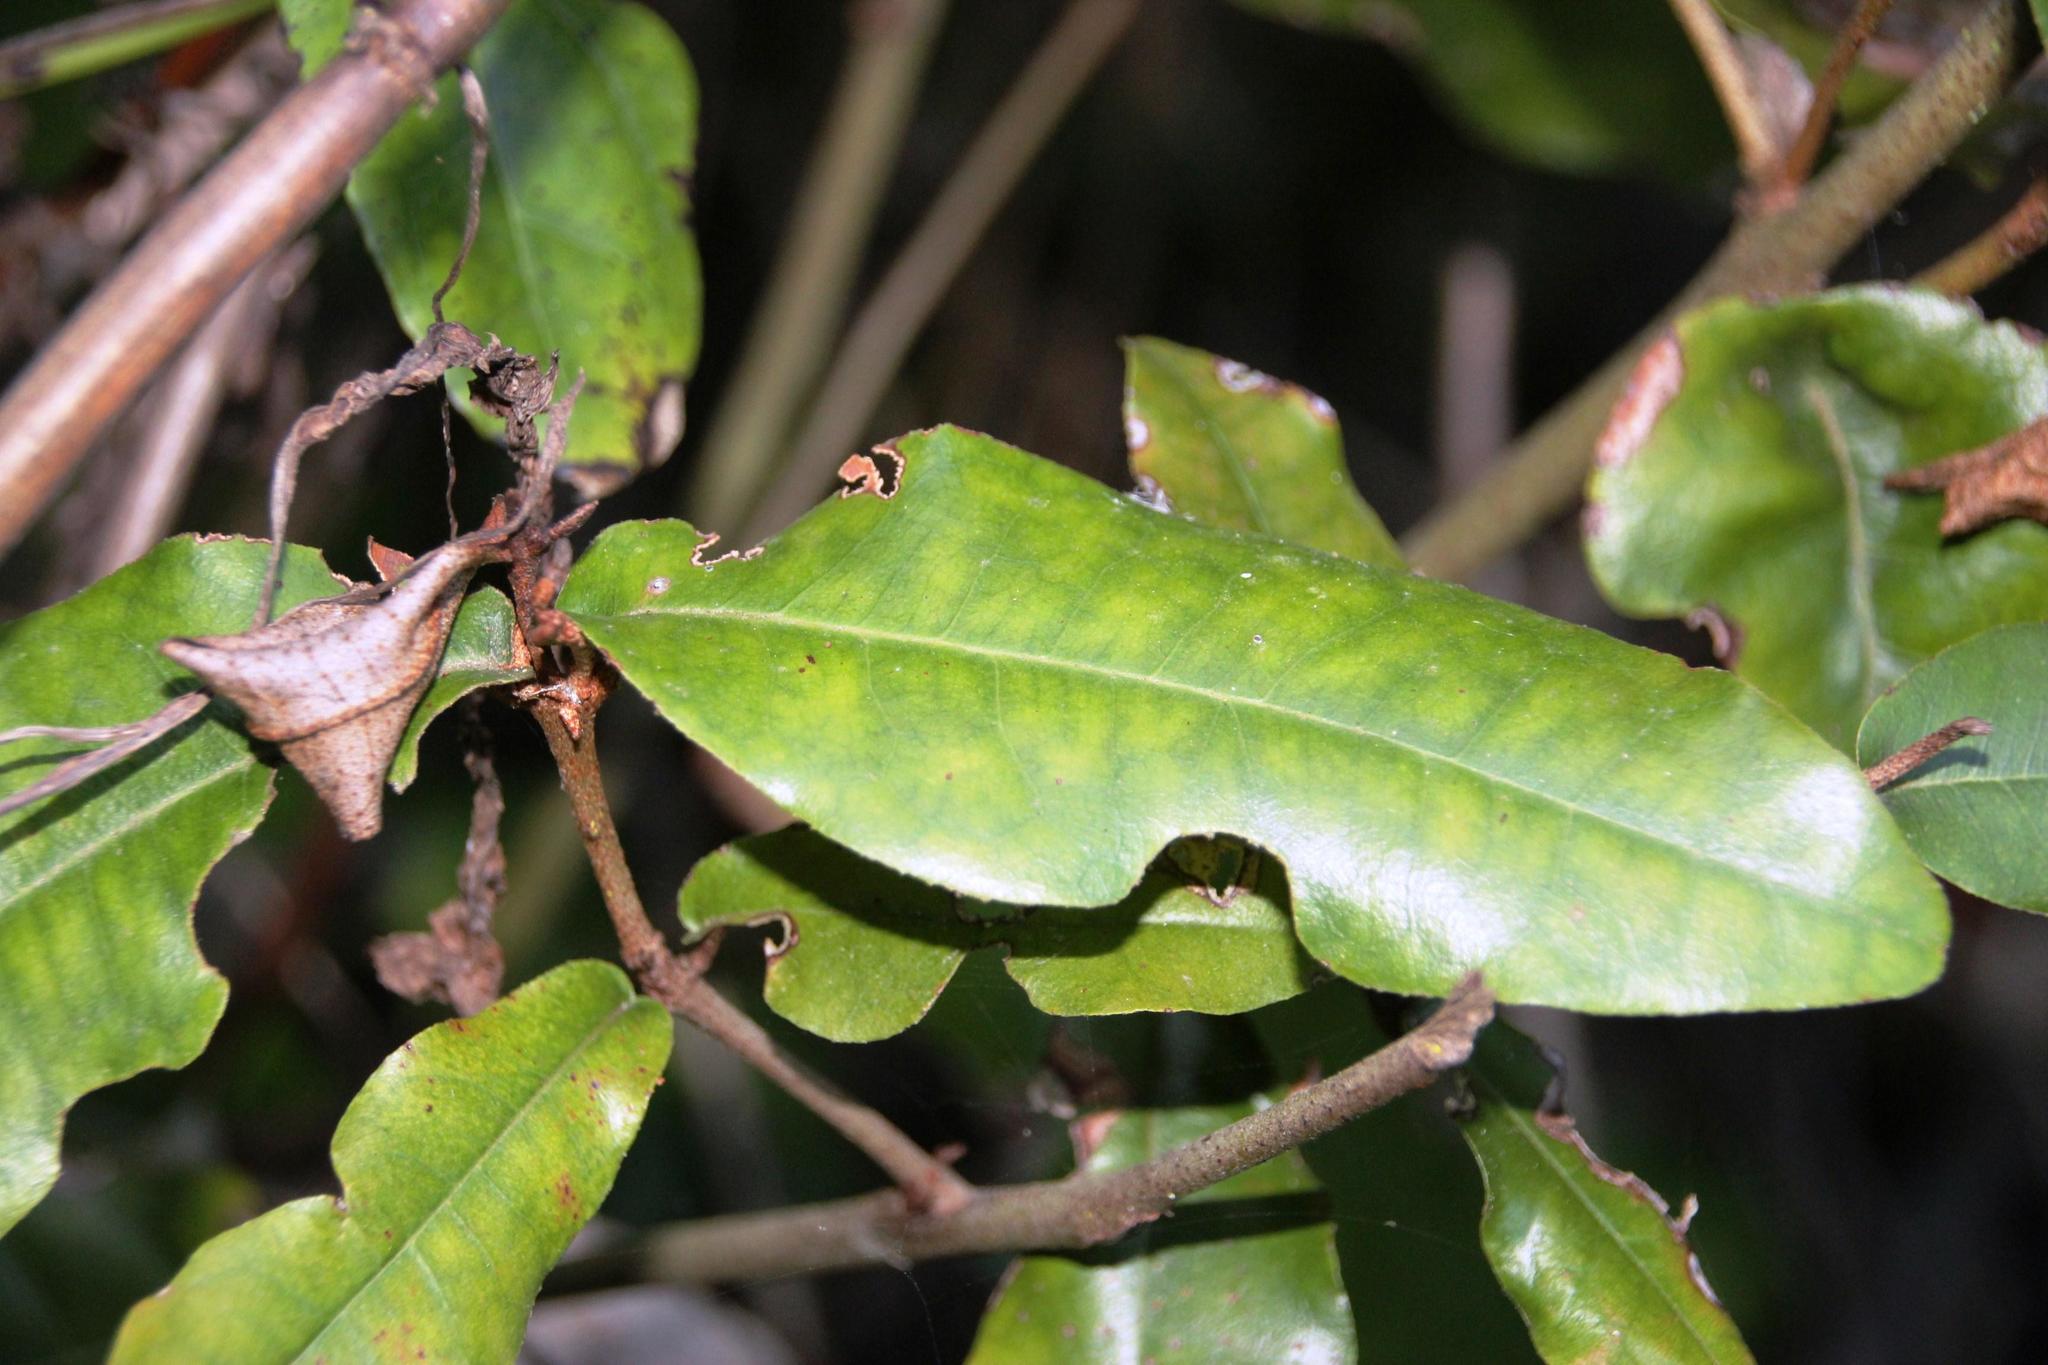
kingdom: Plantae
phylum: Tracheophyta
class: Magnoliopsida
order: Berberidopsidales
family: Aextoxicaceae
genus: Aextoxicon
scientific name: Aextoxicon punctatum
